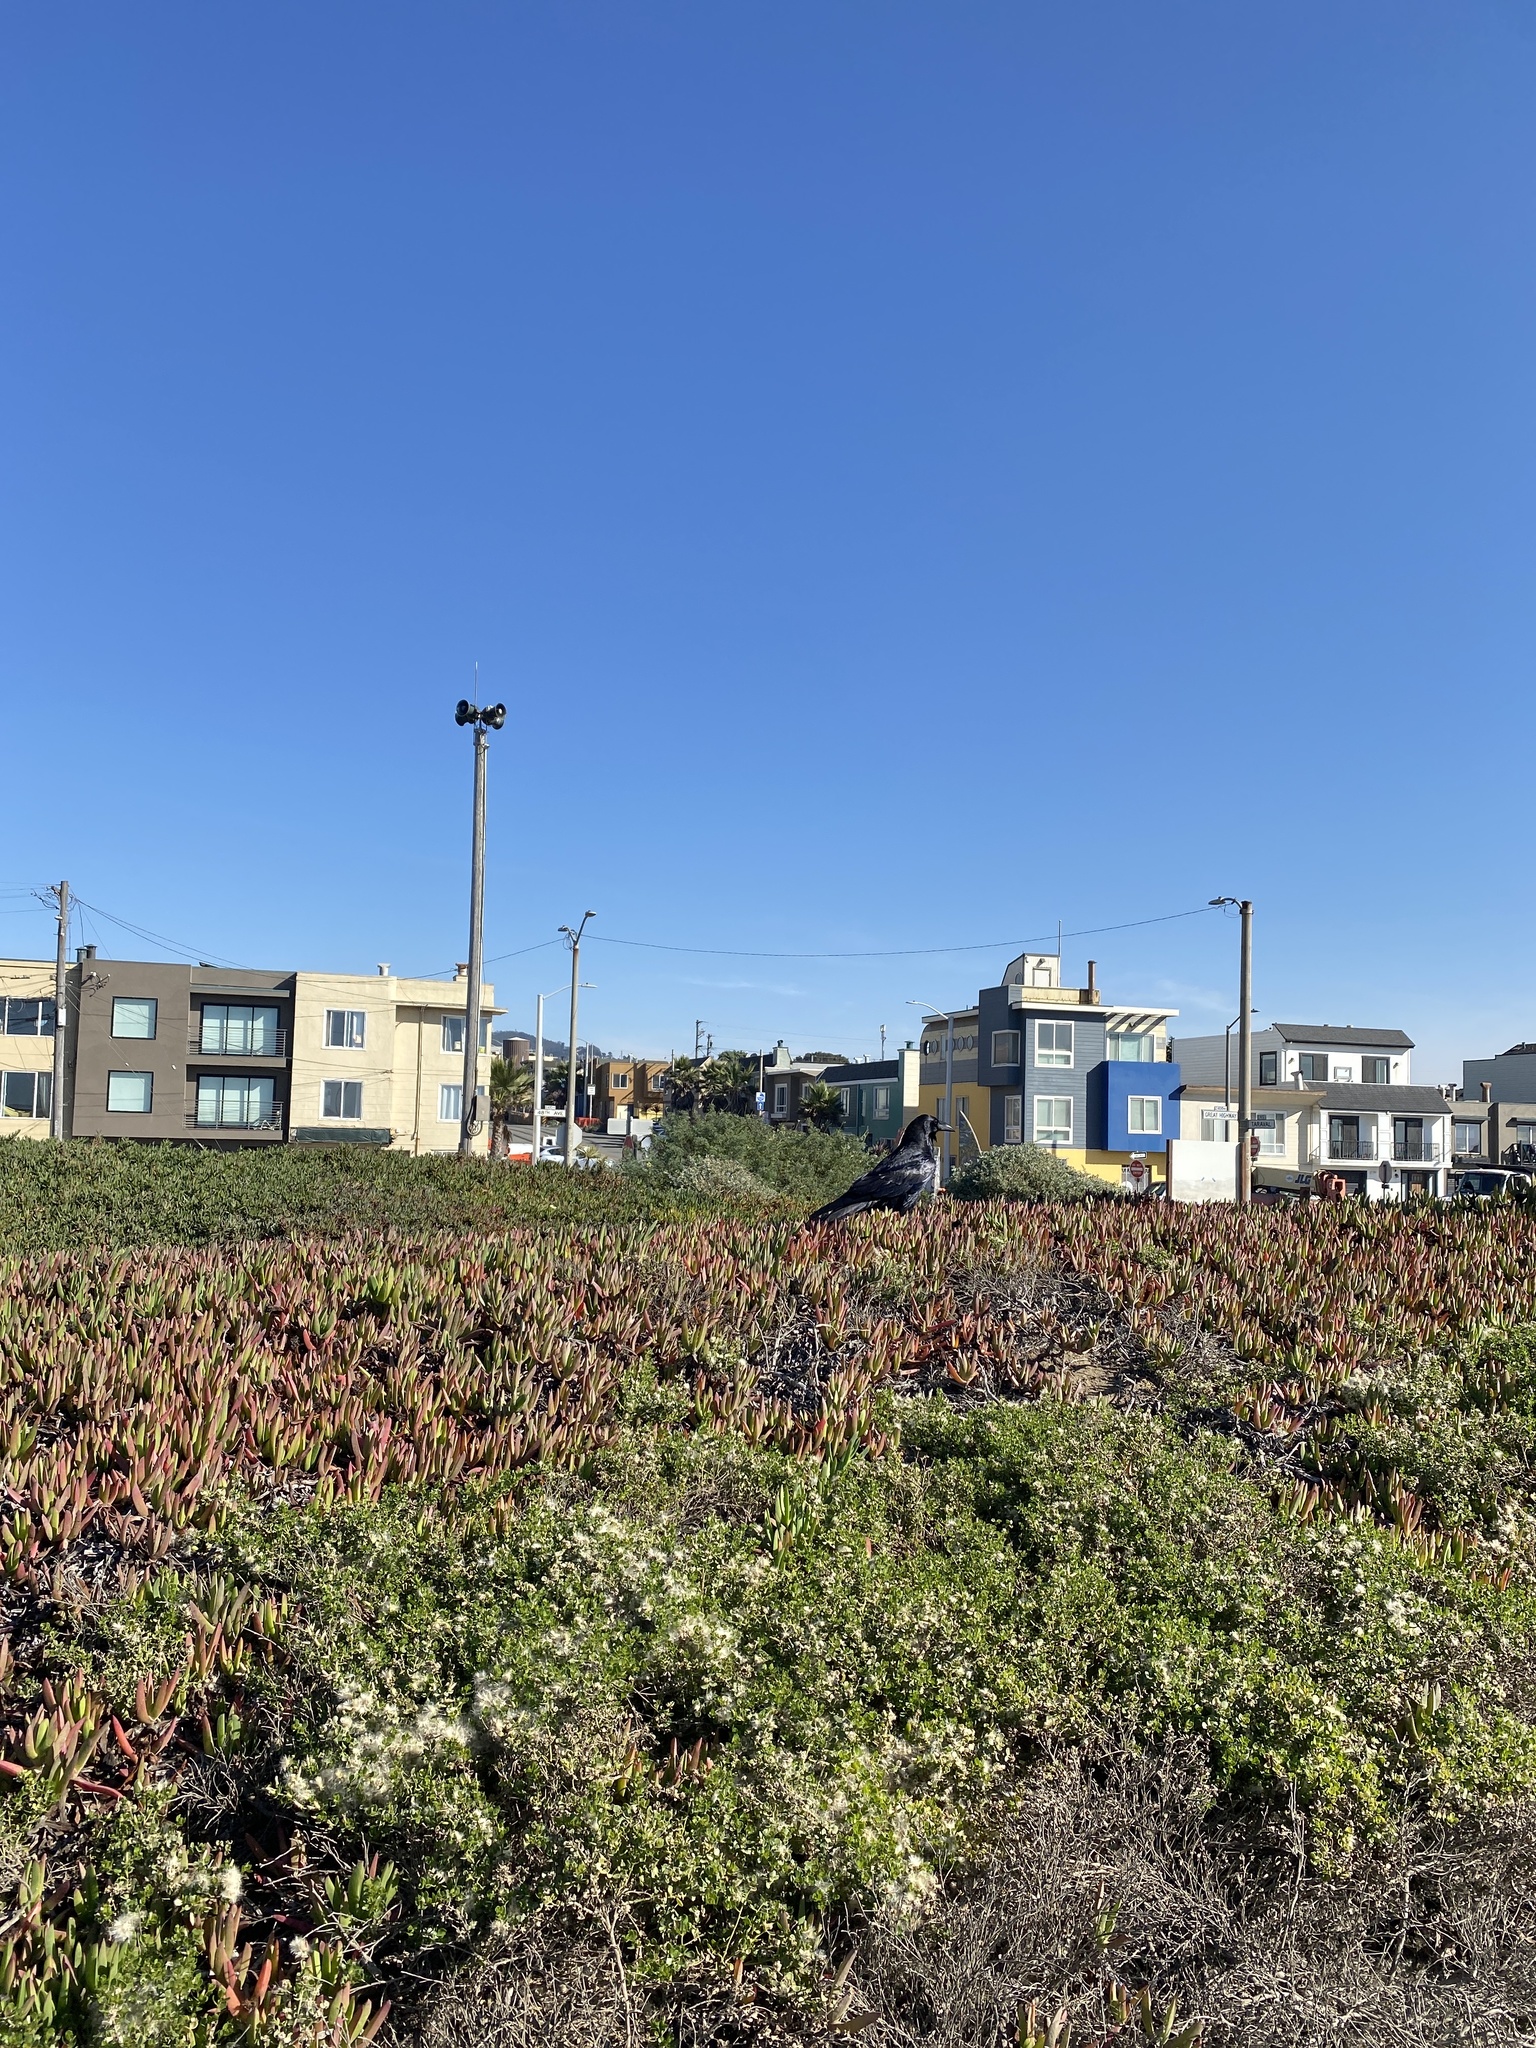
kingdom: Animalia
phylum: Chordata
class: Aves
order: Passeriformes
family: Corvidae
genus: Corvus
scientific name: Corvus corax
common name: Common raven
